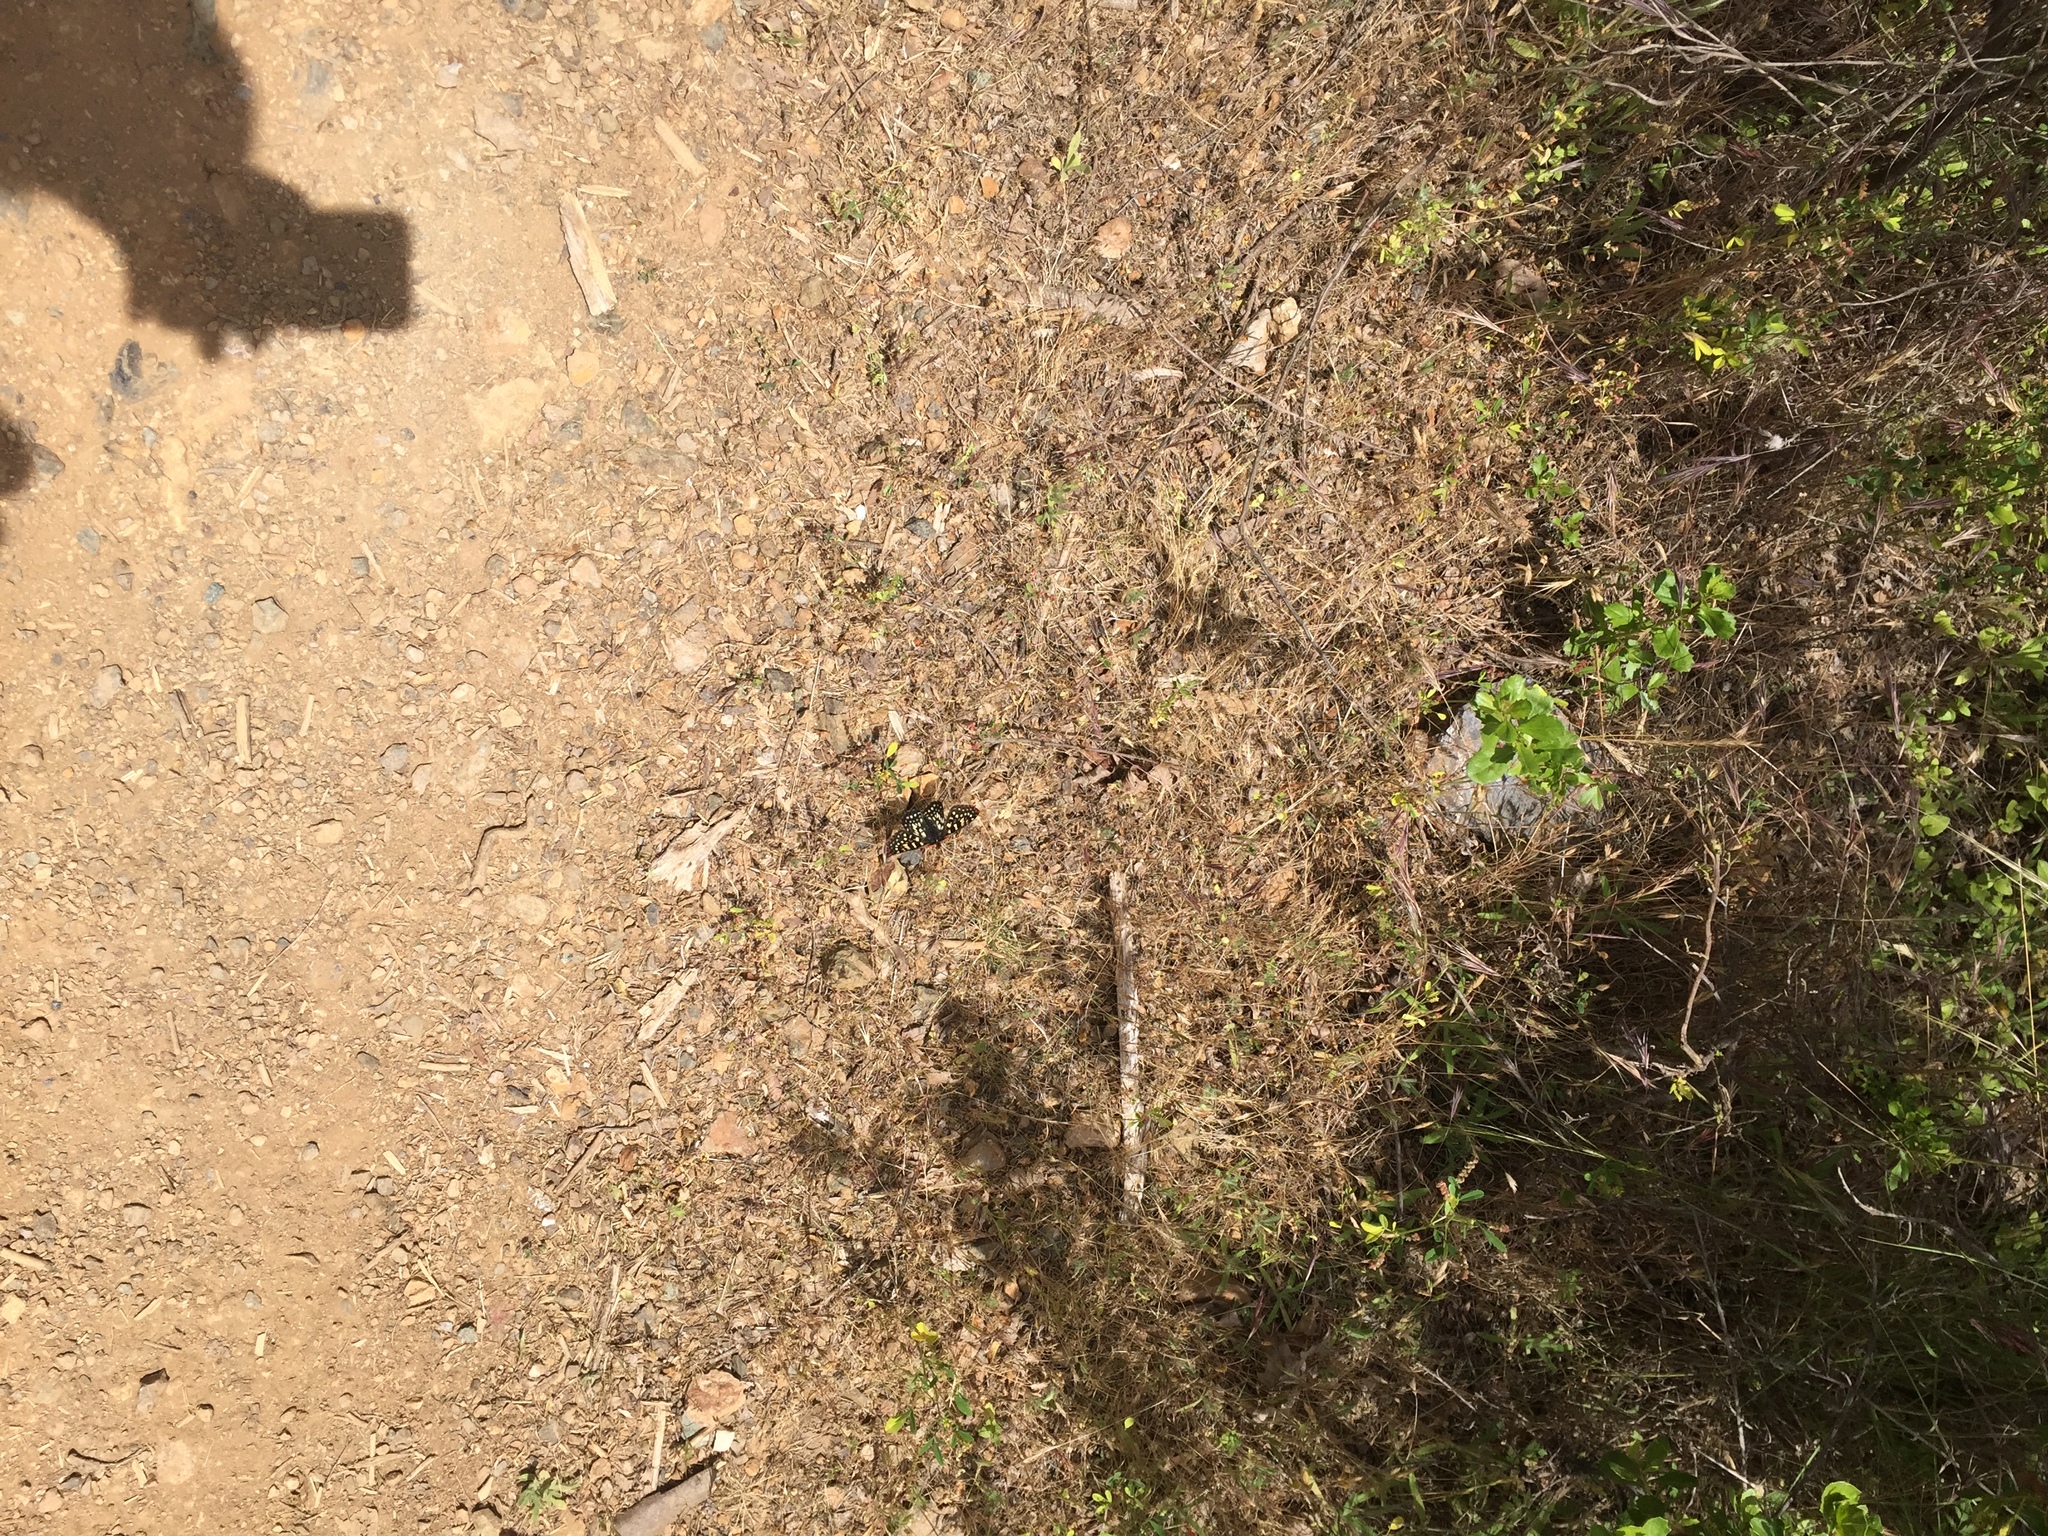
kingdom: Animalia
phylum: Arthropoda
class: Insecta
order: Lepidoptera
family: Nymphalidae
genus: Occidryas
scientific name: Occidryas chalcedona
